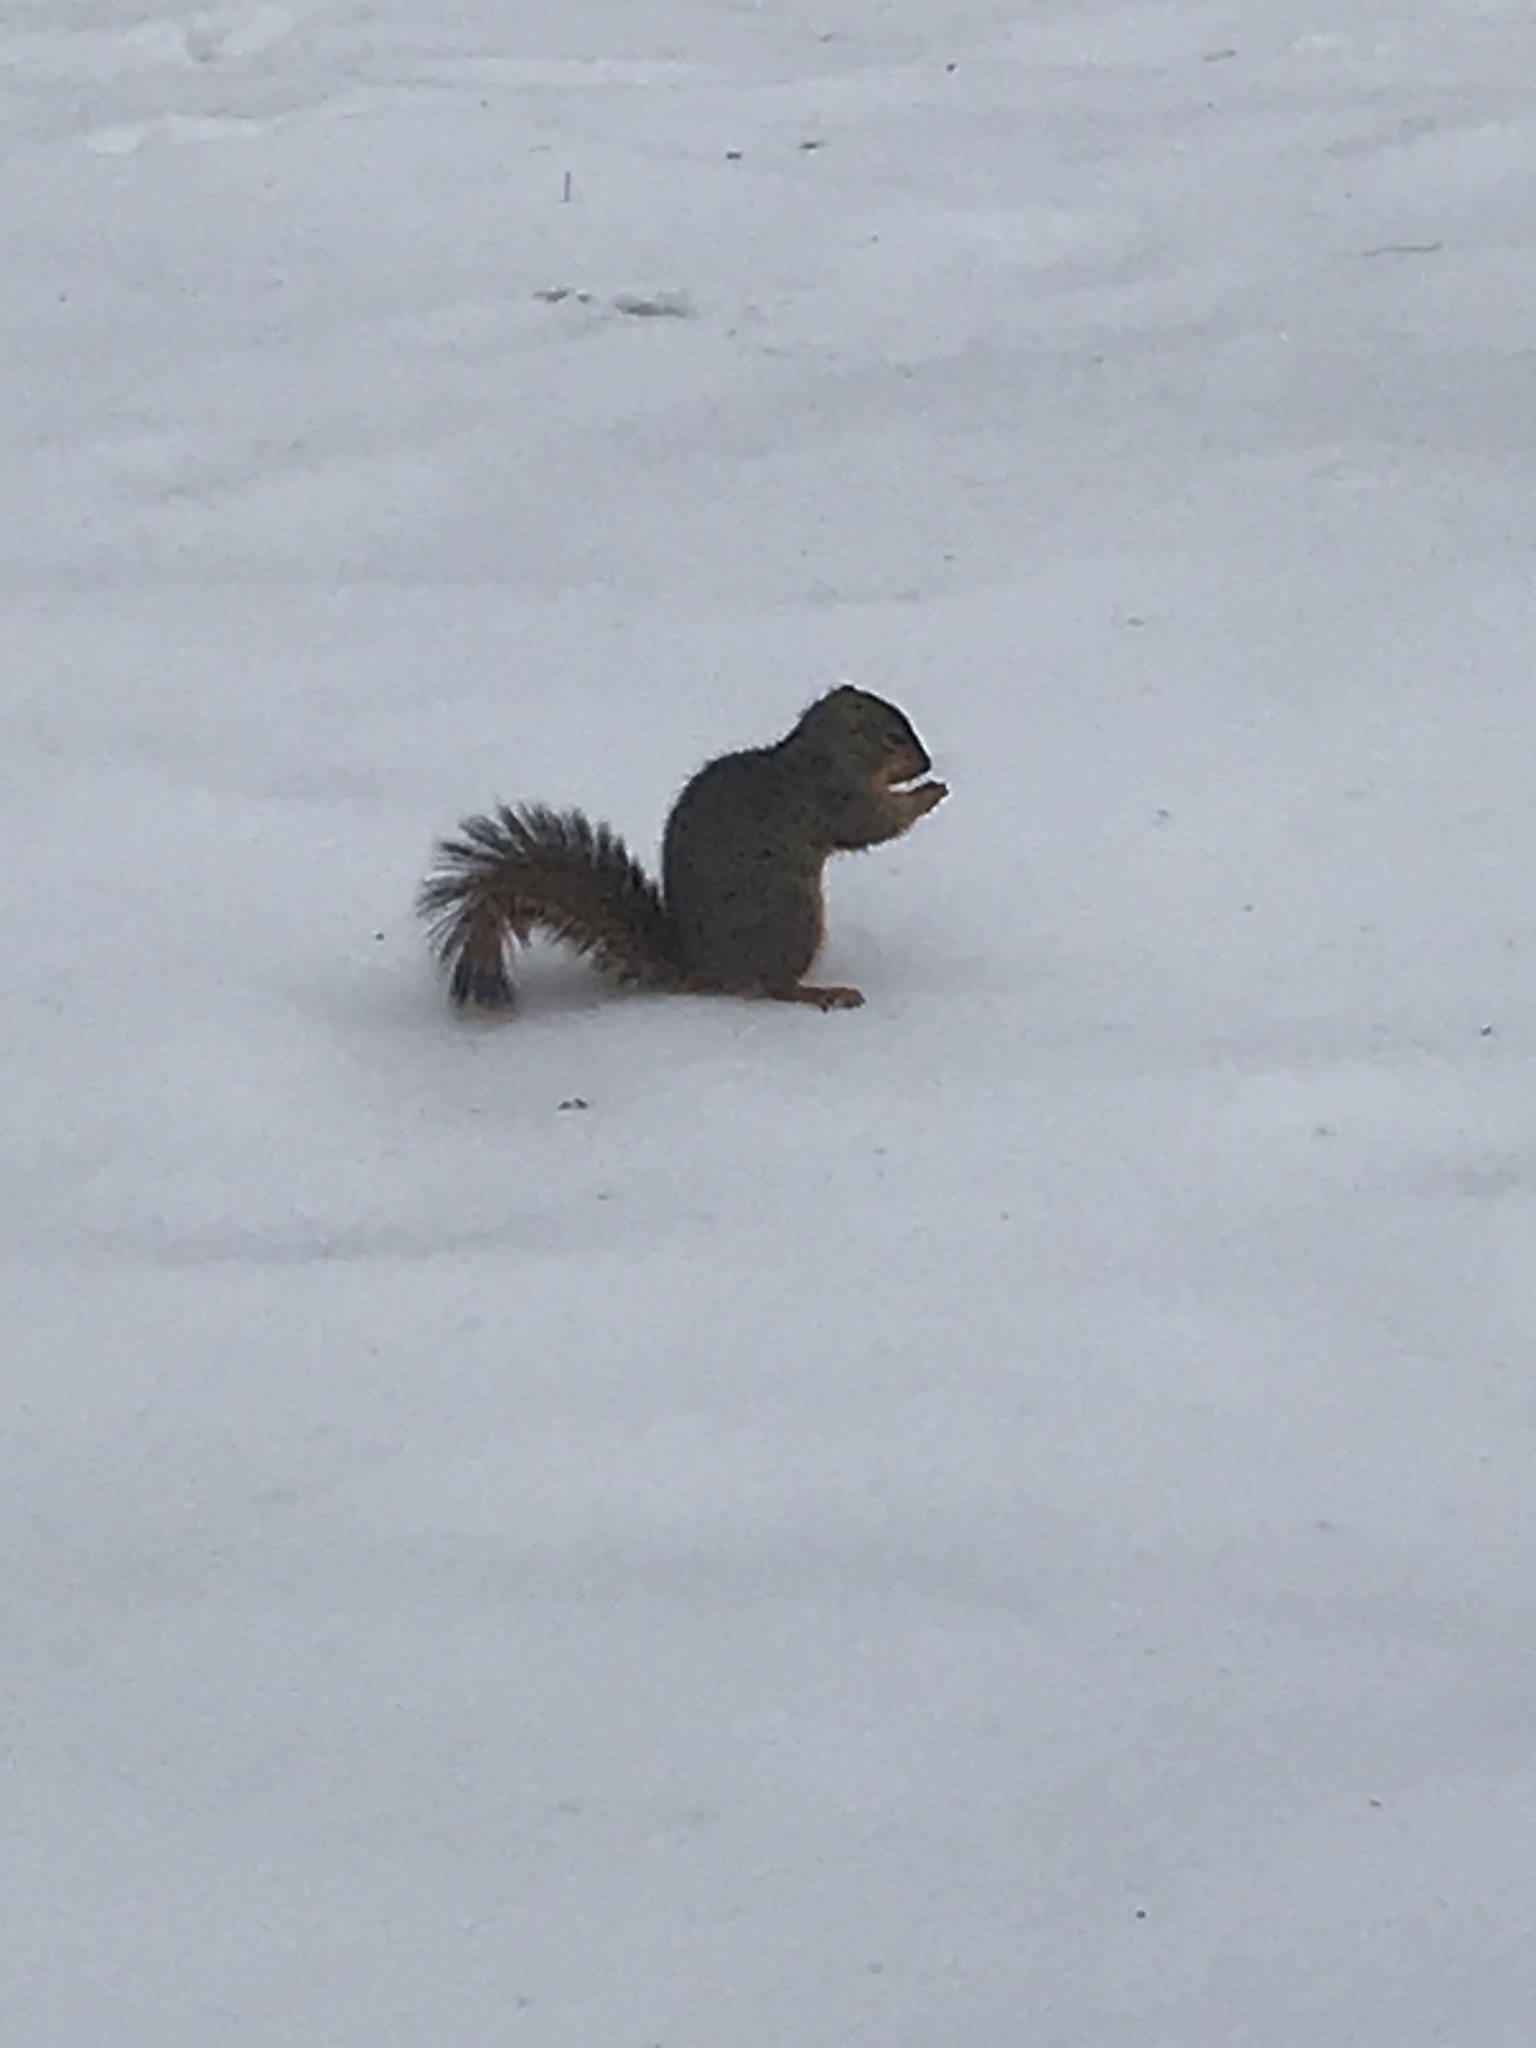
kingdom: Animalia
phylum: Chordata
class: Mammalia
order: Rodentia
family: Sciuridae
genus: Sciurus
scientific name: Sciurus niger
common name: Fox squirrel
